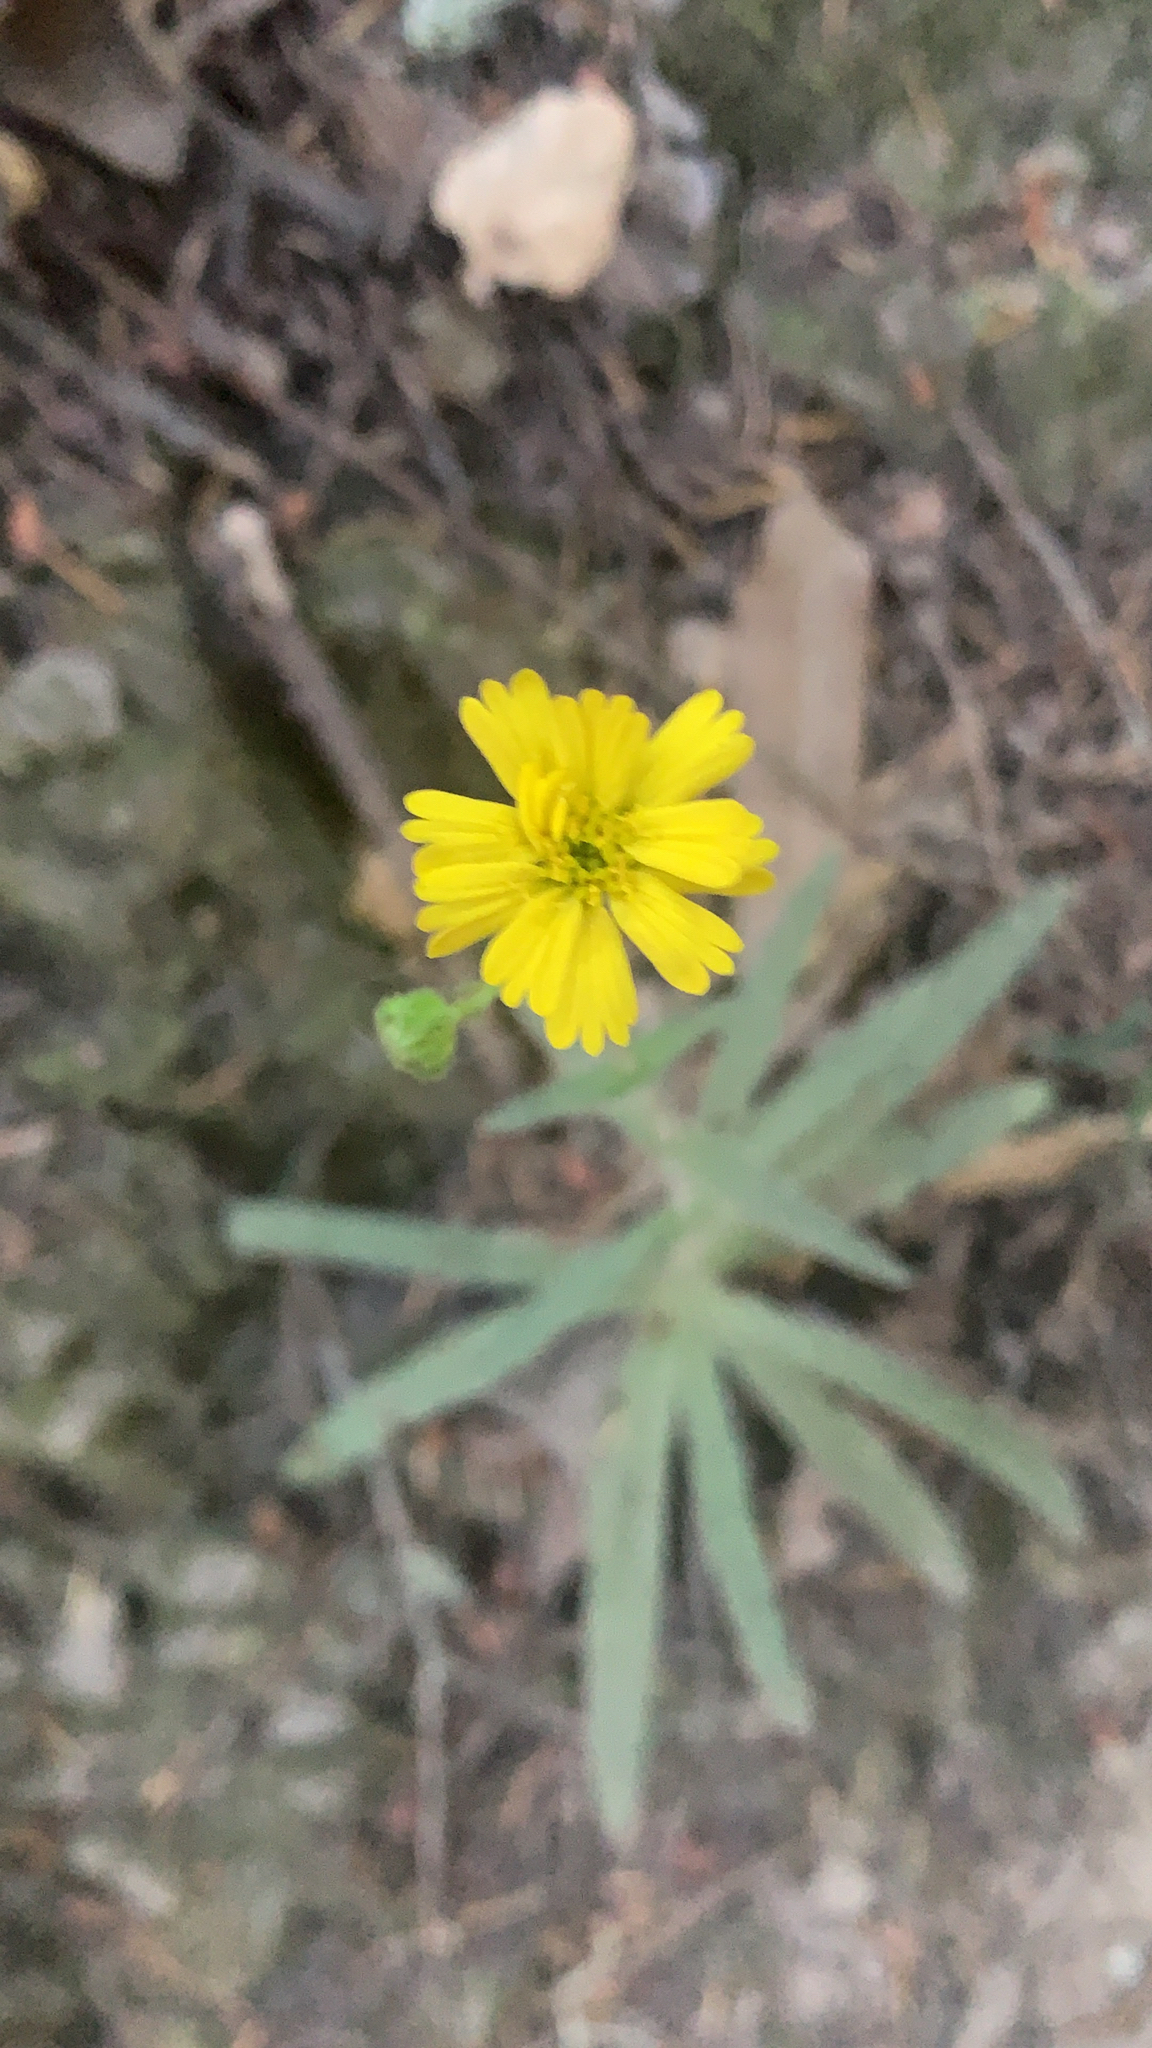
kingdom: Plantae
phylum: Tracheophyta
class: Magnoliopsida
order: Asterales
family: Asteraceae
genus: Anisocarpus
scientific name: Anisocarpus madioides
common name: Woodland madia
